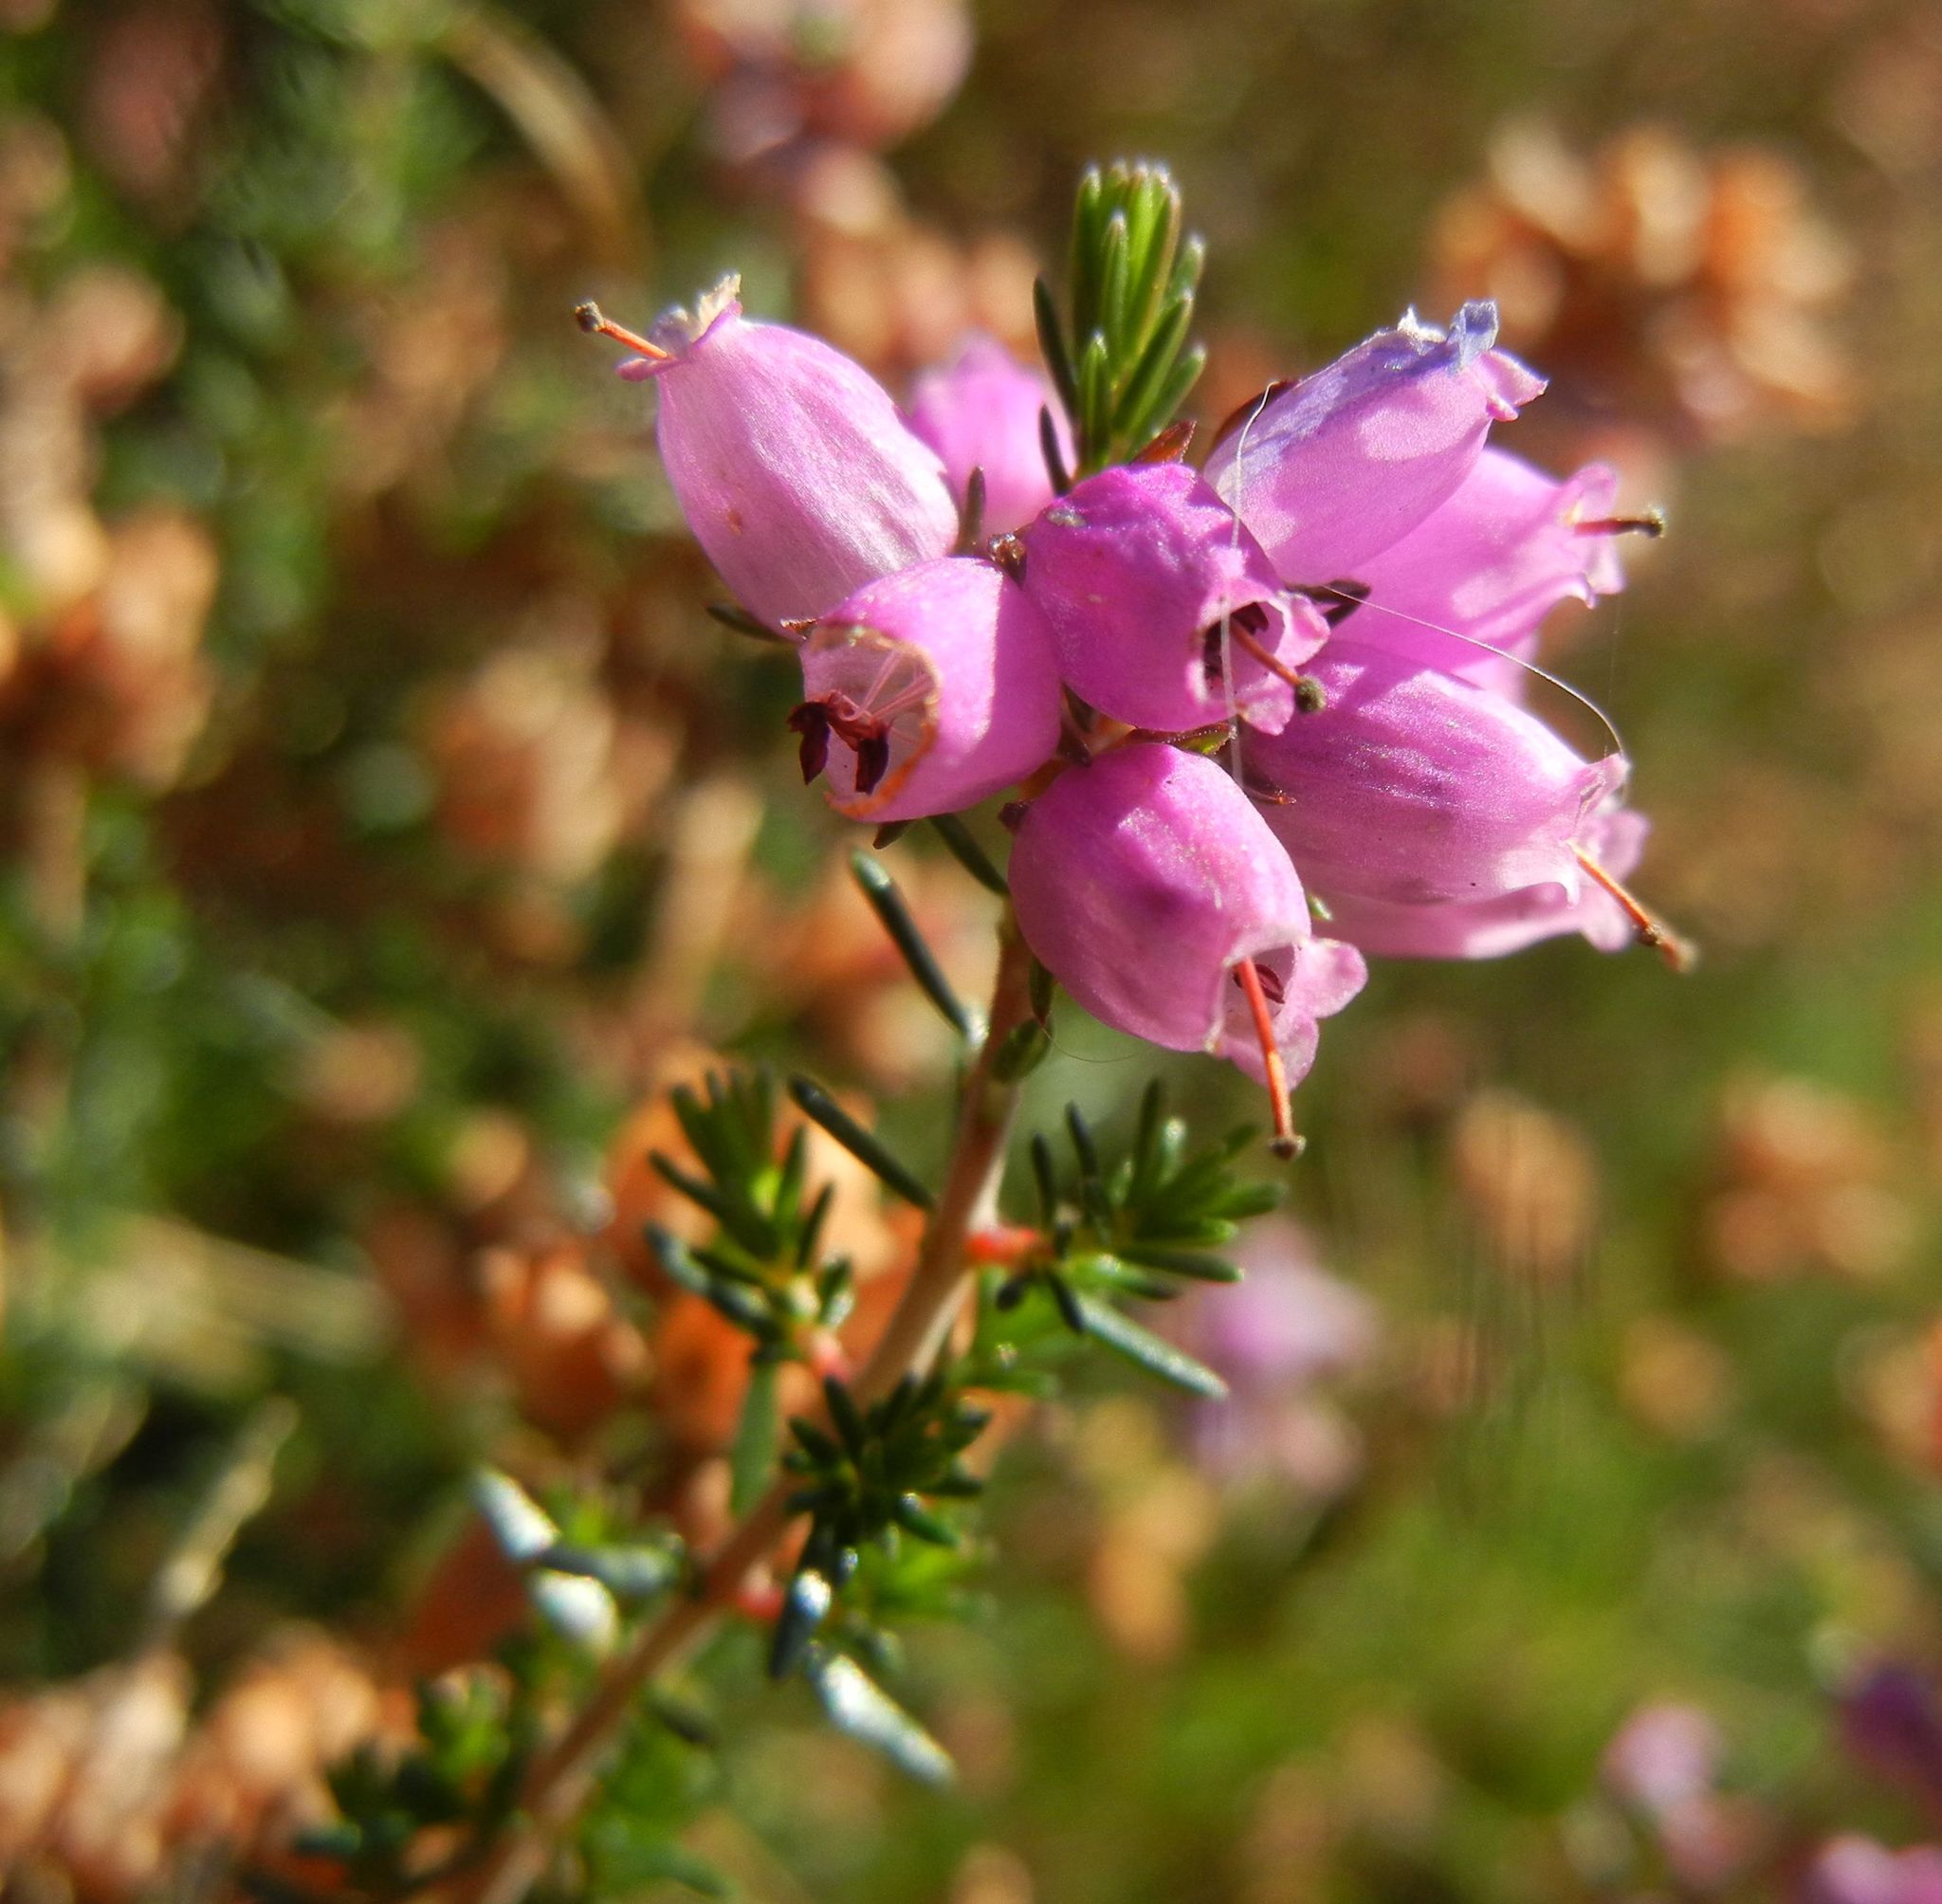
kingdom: Plantae
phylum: Tracheophyta
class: Magnoliopsida
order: Ericales
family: Ericaceae
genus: Erica
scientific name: Erica cinerea
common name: Bell heather
